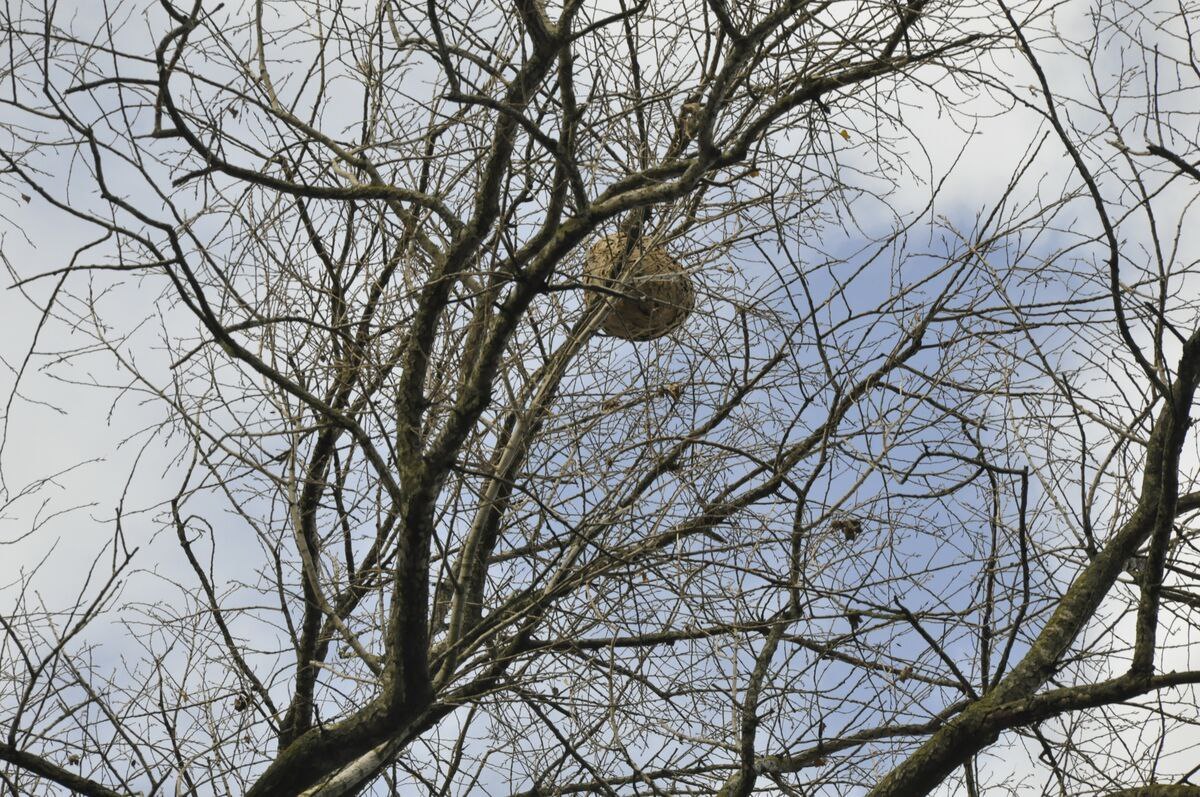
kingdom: Animalia
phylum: Arthropoda
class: Insecta
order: Hymenoptera
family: Vespidae
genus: Vespa
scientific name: Vespa velutina
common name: Asian hornet
